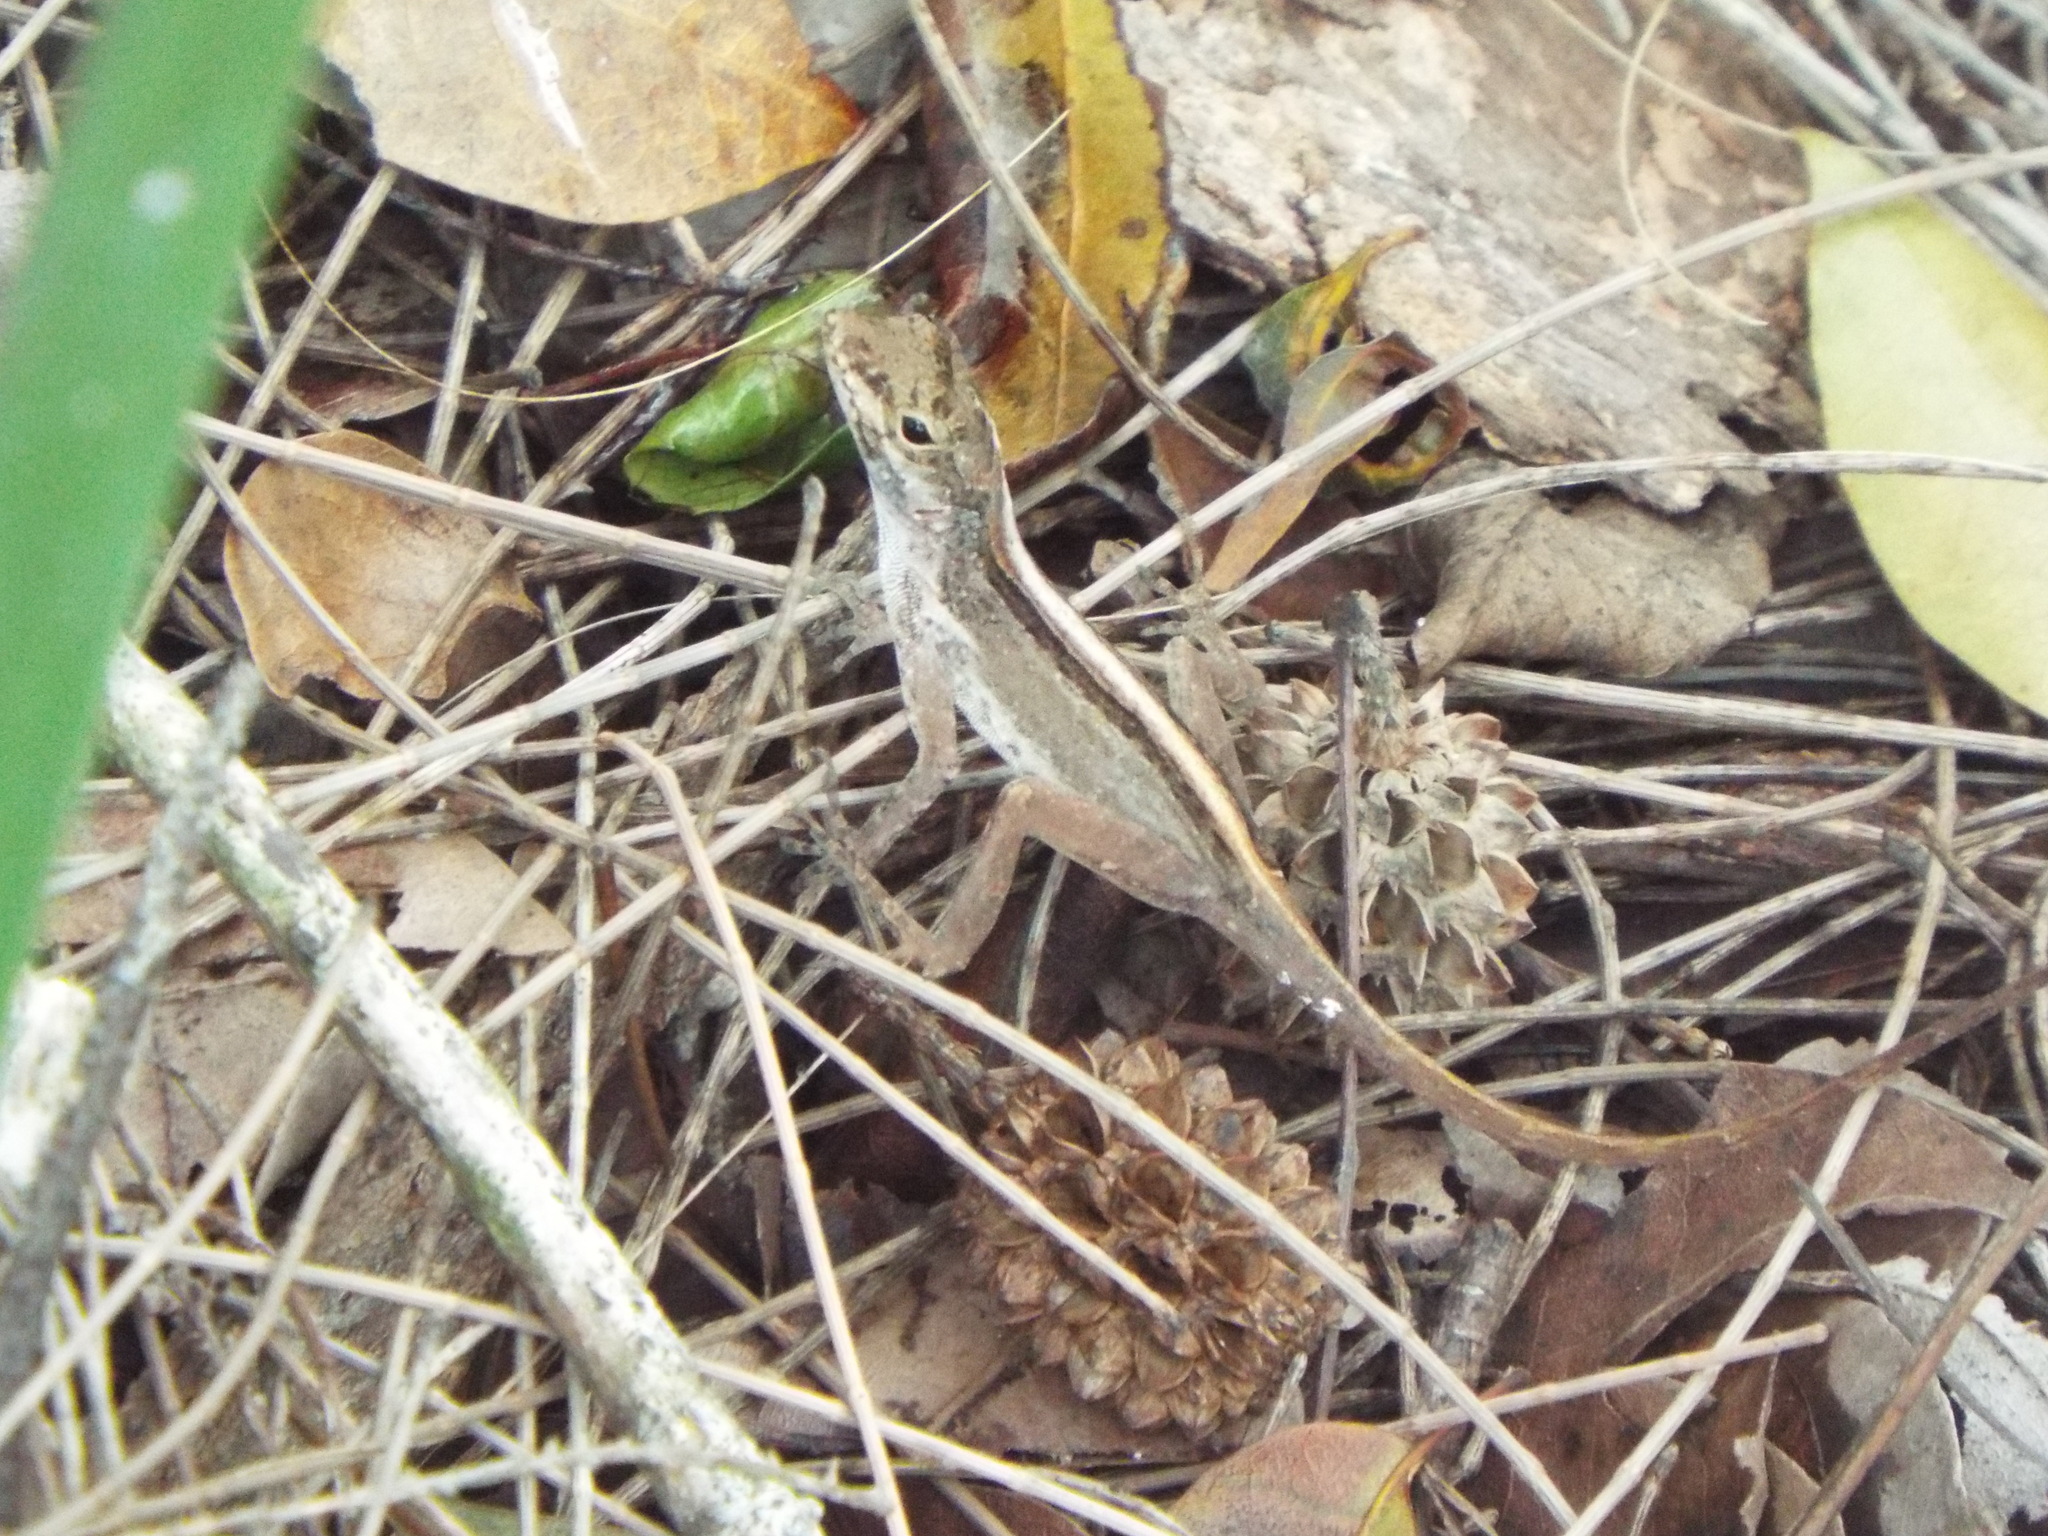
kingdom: Animalia
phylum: Chordata
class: Squamata
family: Dactyloidae
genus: Anolis
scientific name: Anolis sagrei
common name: Brown anole
